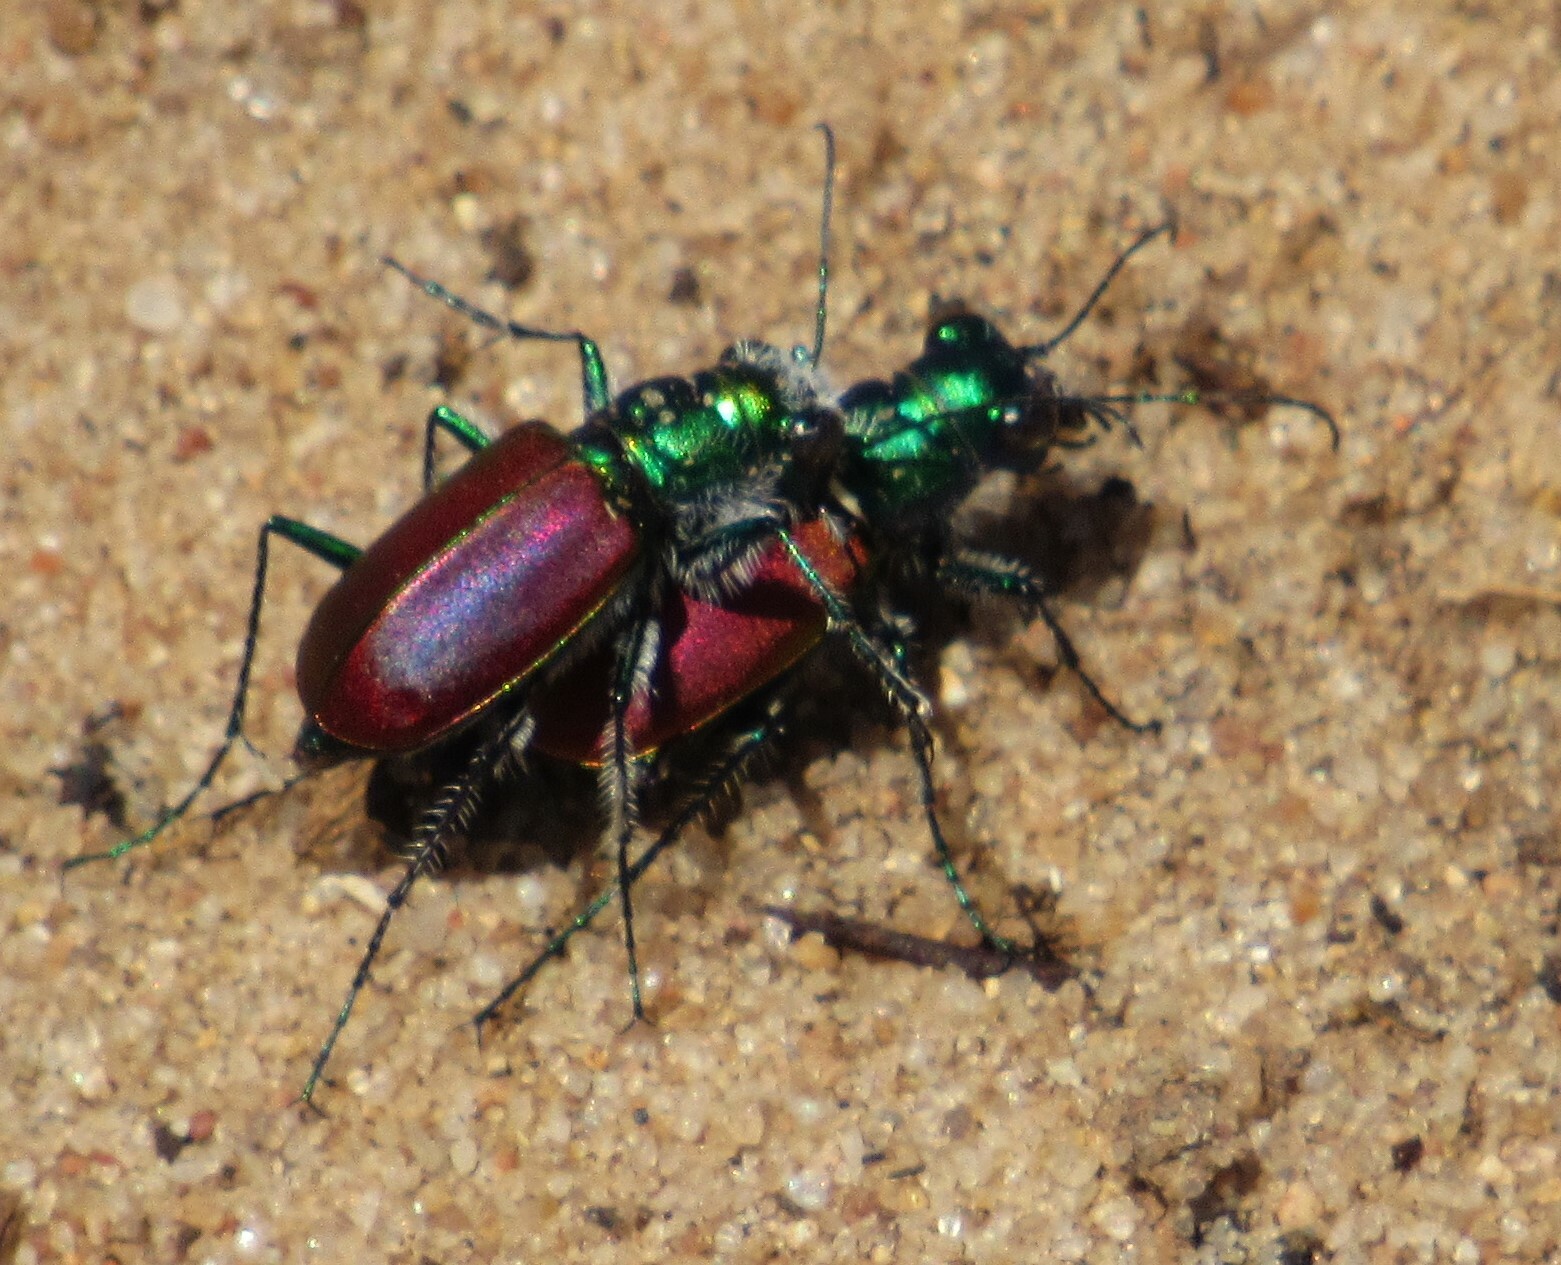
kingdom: Animalia
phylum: Arthropoda
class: Insecta
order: Coleoptera
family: Carabidae
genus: Cicindela
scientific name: Cicindela scutellaris
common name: Festive tiger beetle
